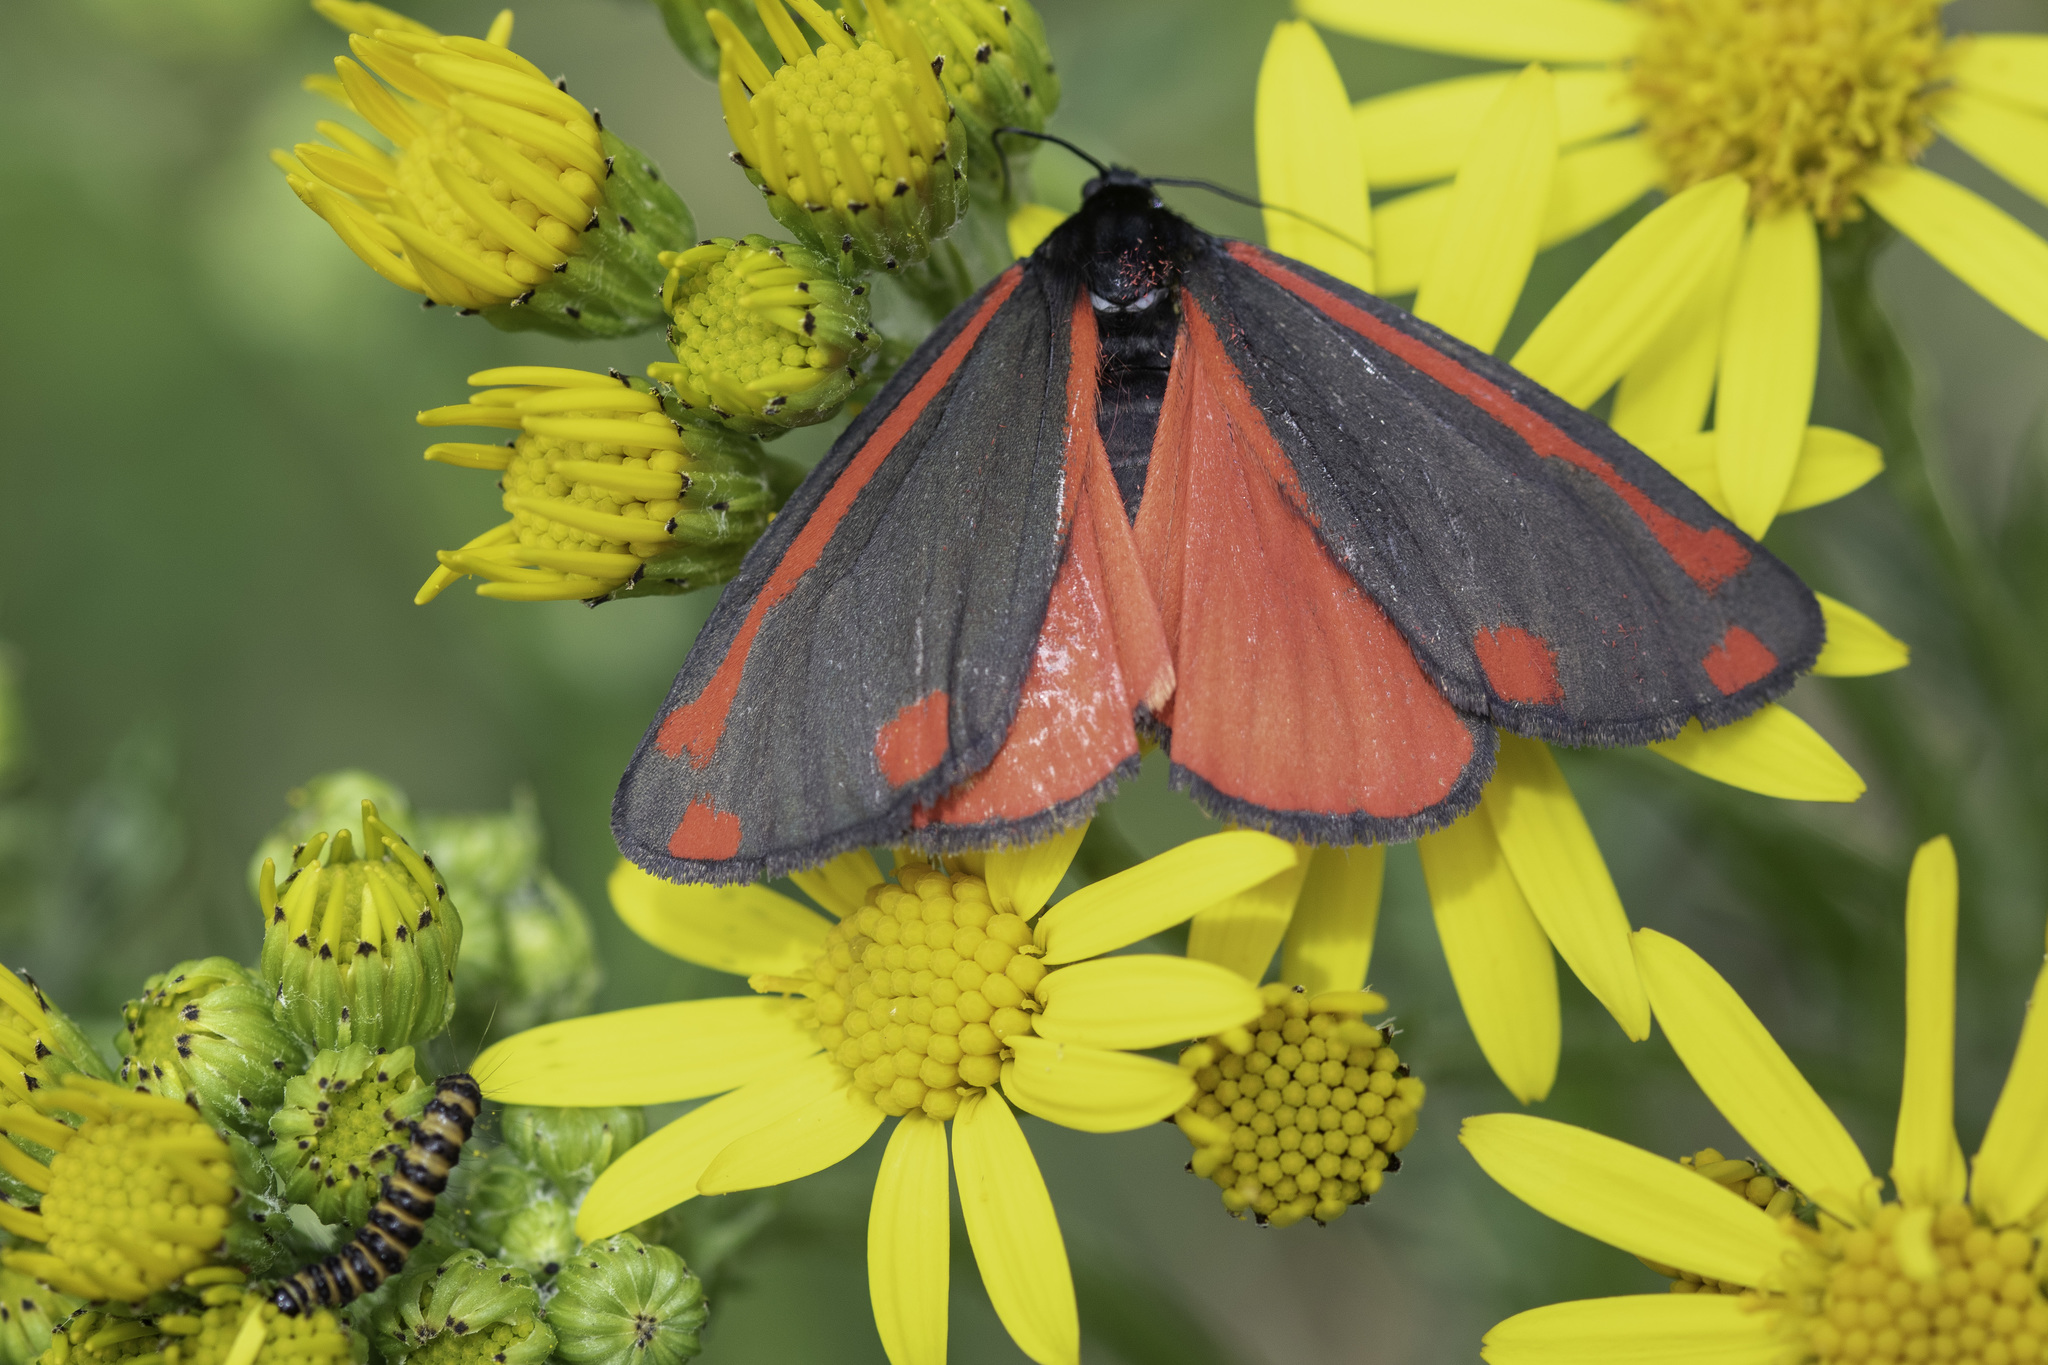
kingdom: Animalia
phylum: Arthropoda
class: Insecta
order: Lepidoptera
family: Erebidae
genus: Tyria
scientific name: Tyria jacobaeae
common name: Cinnabar
